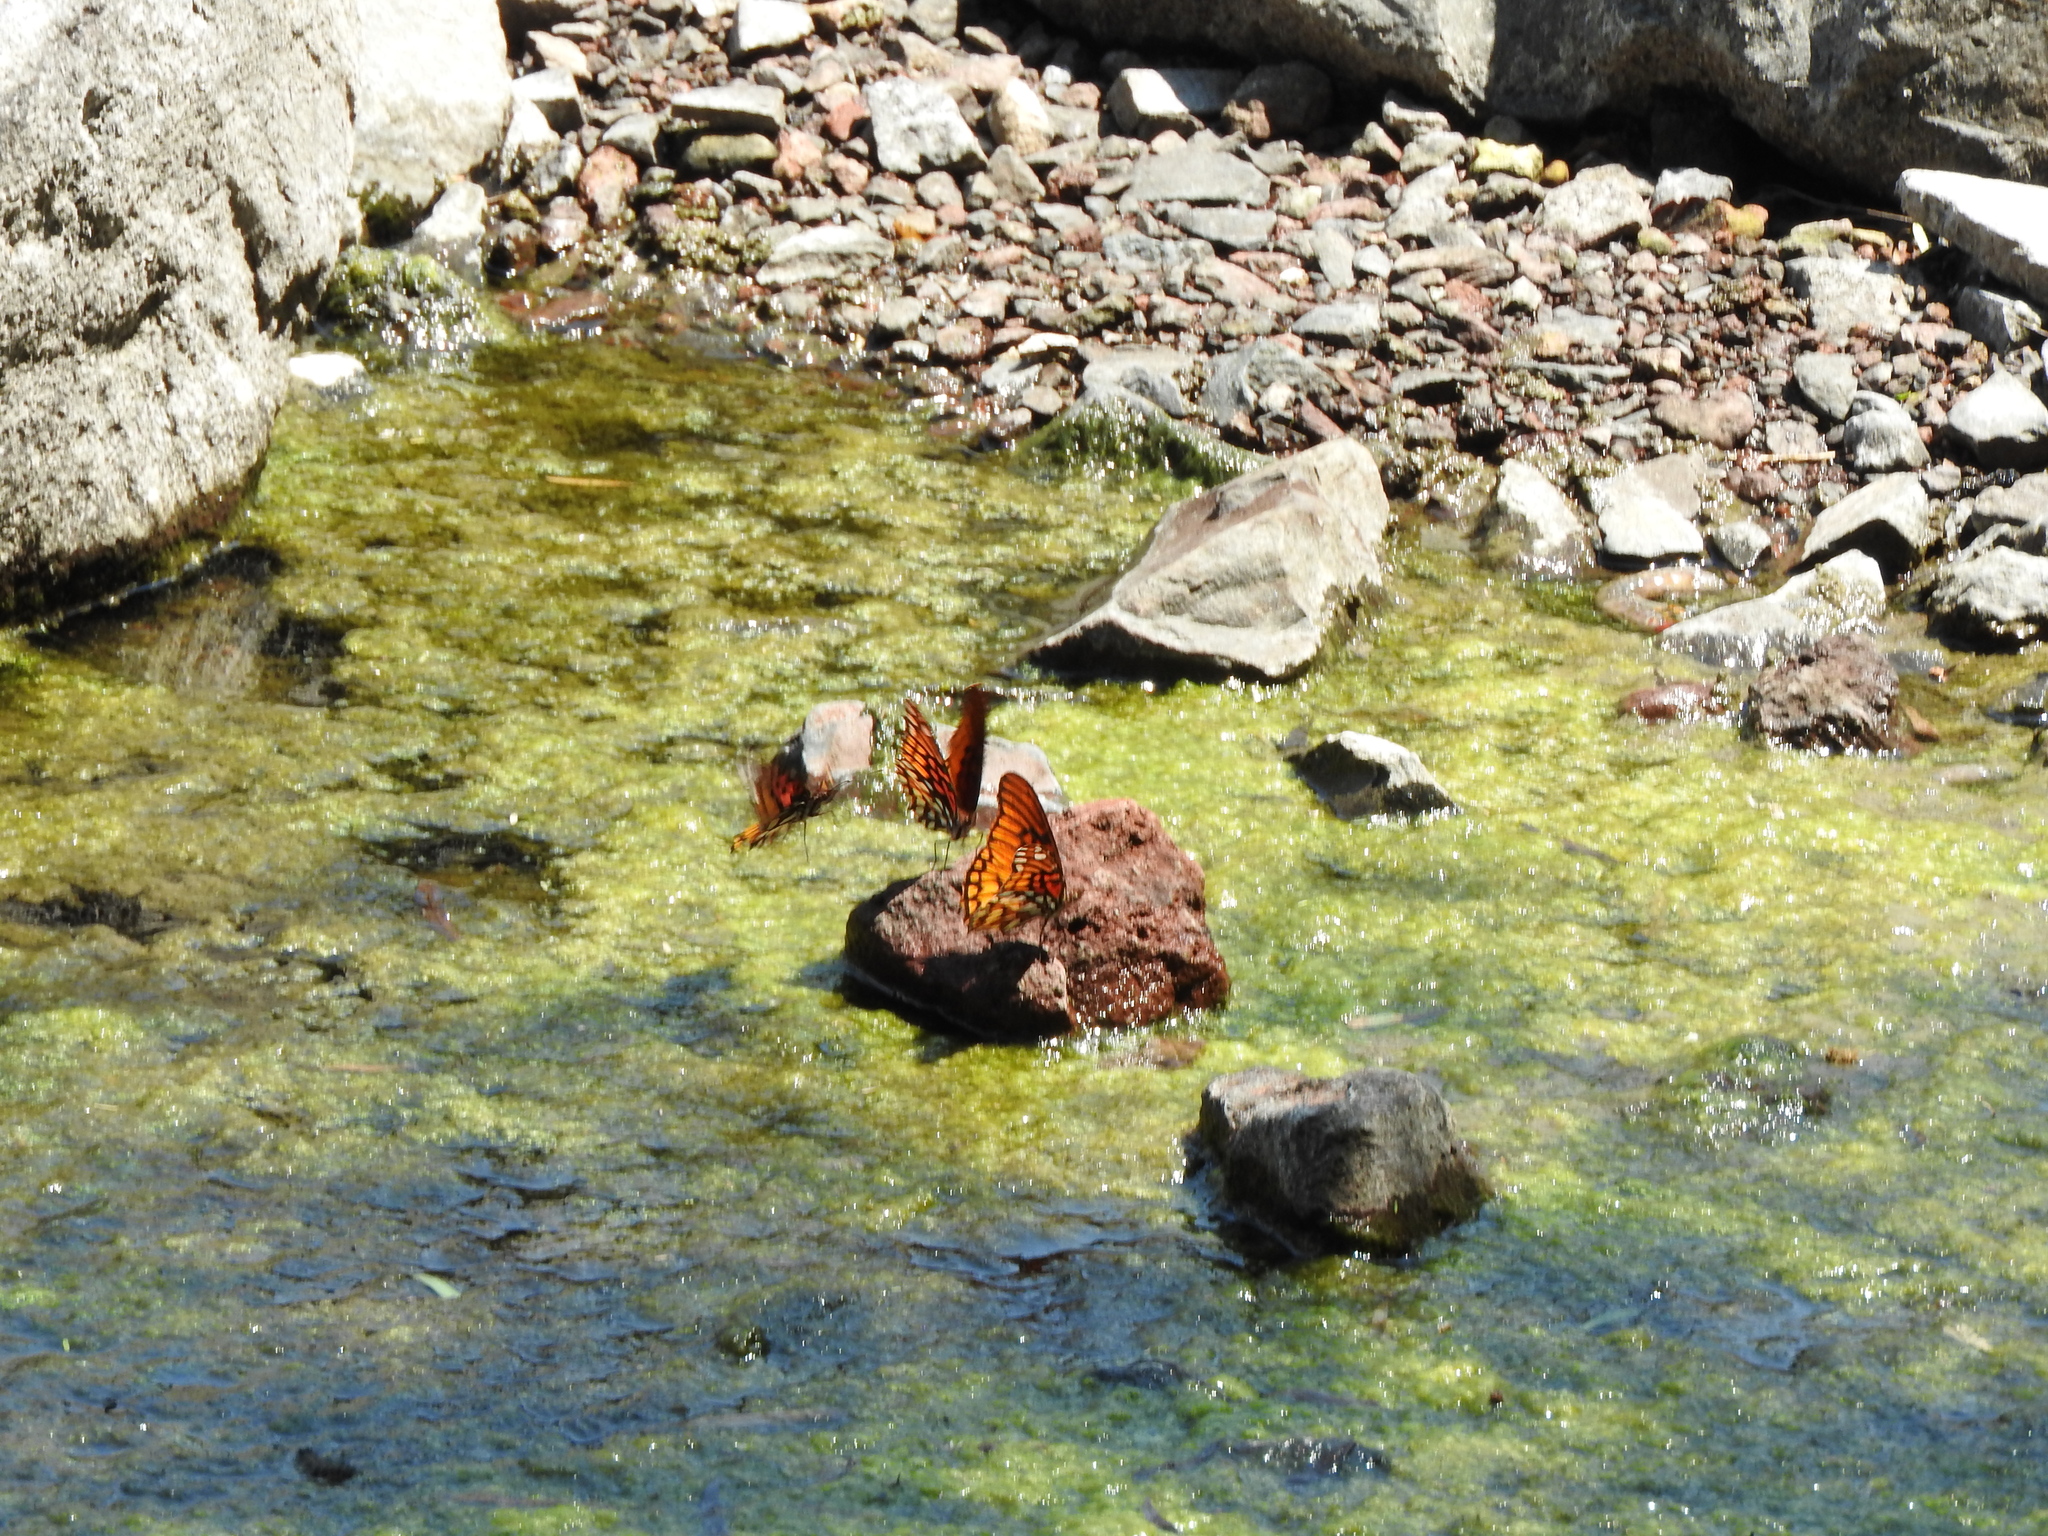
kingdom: Animalia
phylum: Arthropoda
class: Insecta
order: Lepidoptera
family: Nymphalidae
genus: Dione
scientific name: Dione moneta
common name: Mexican silverspot
